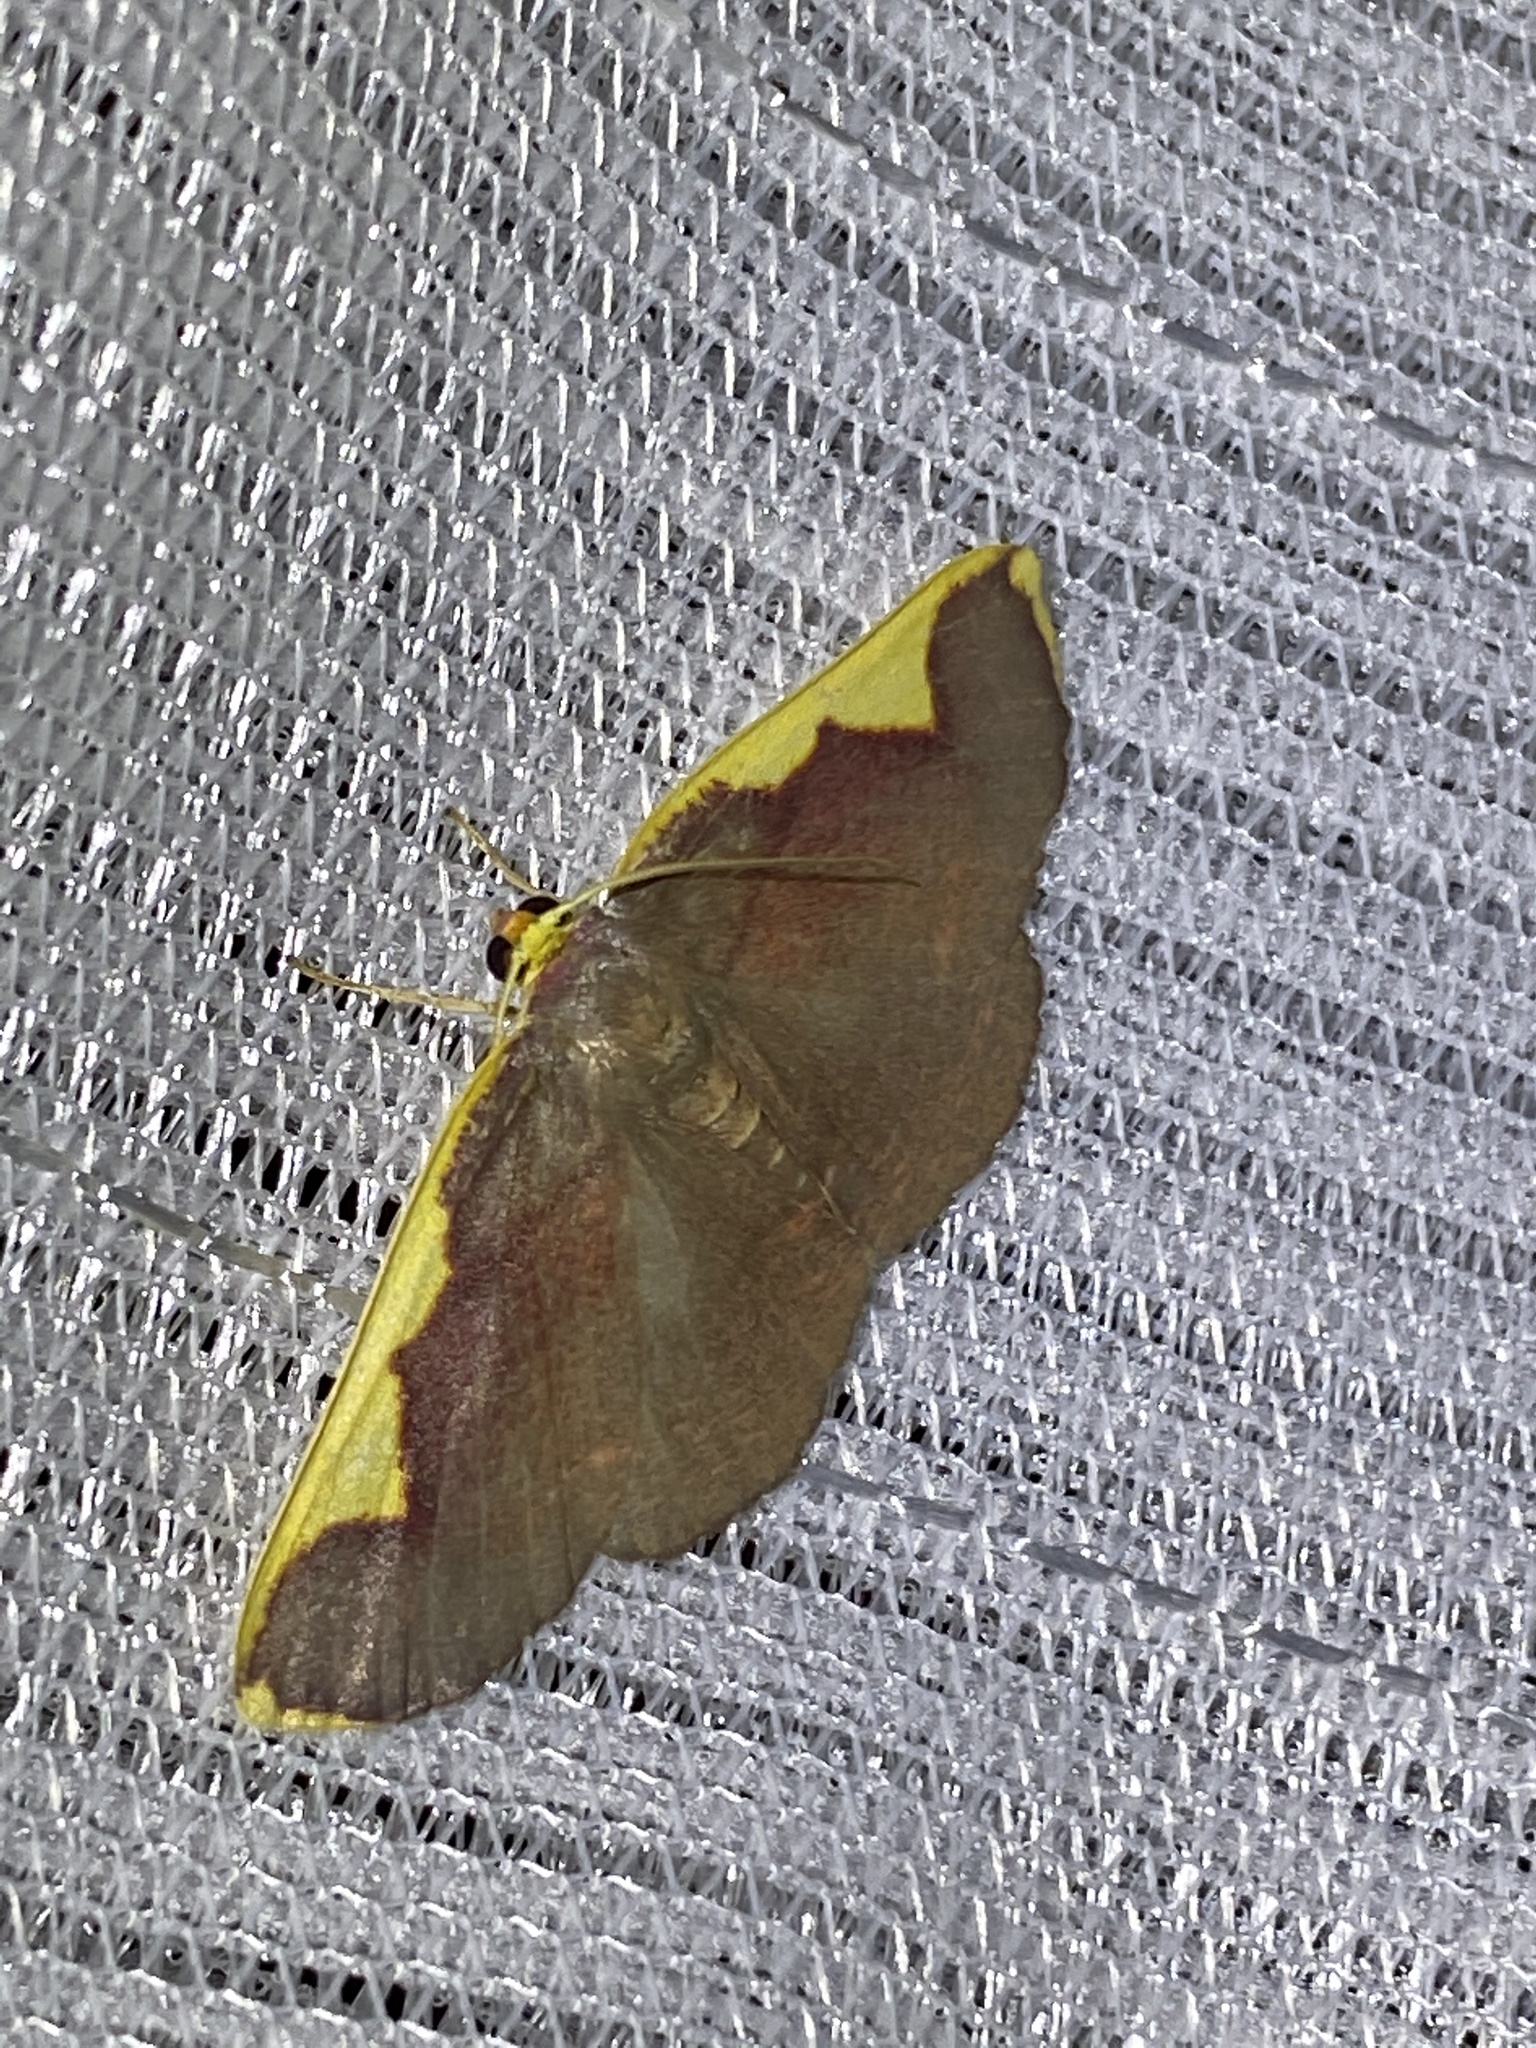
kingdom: Animalia
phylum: Arthropoda
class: Insecta
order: Lepidoptera
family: Geometridae
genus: Nothomiza
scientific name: Nothomiza formosa
